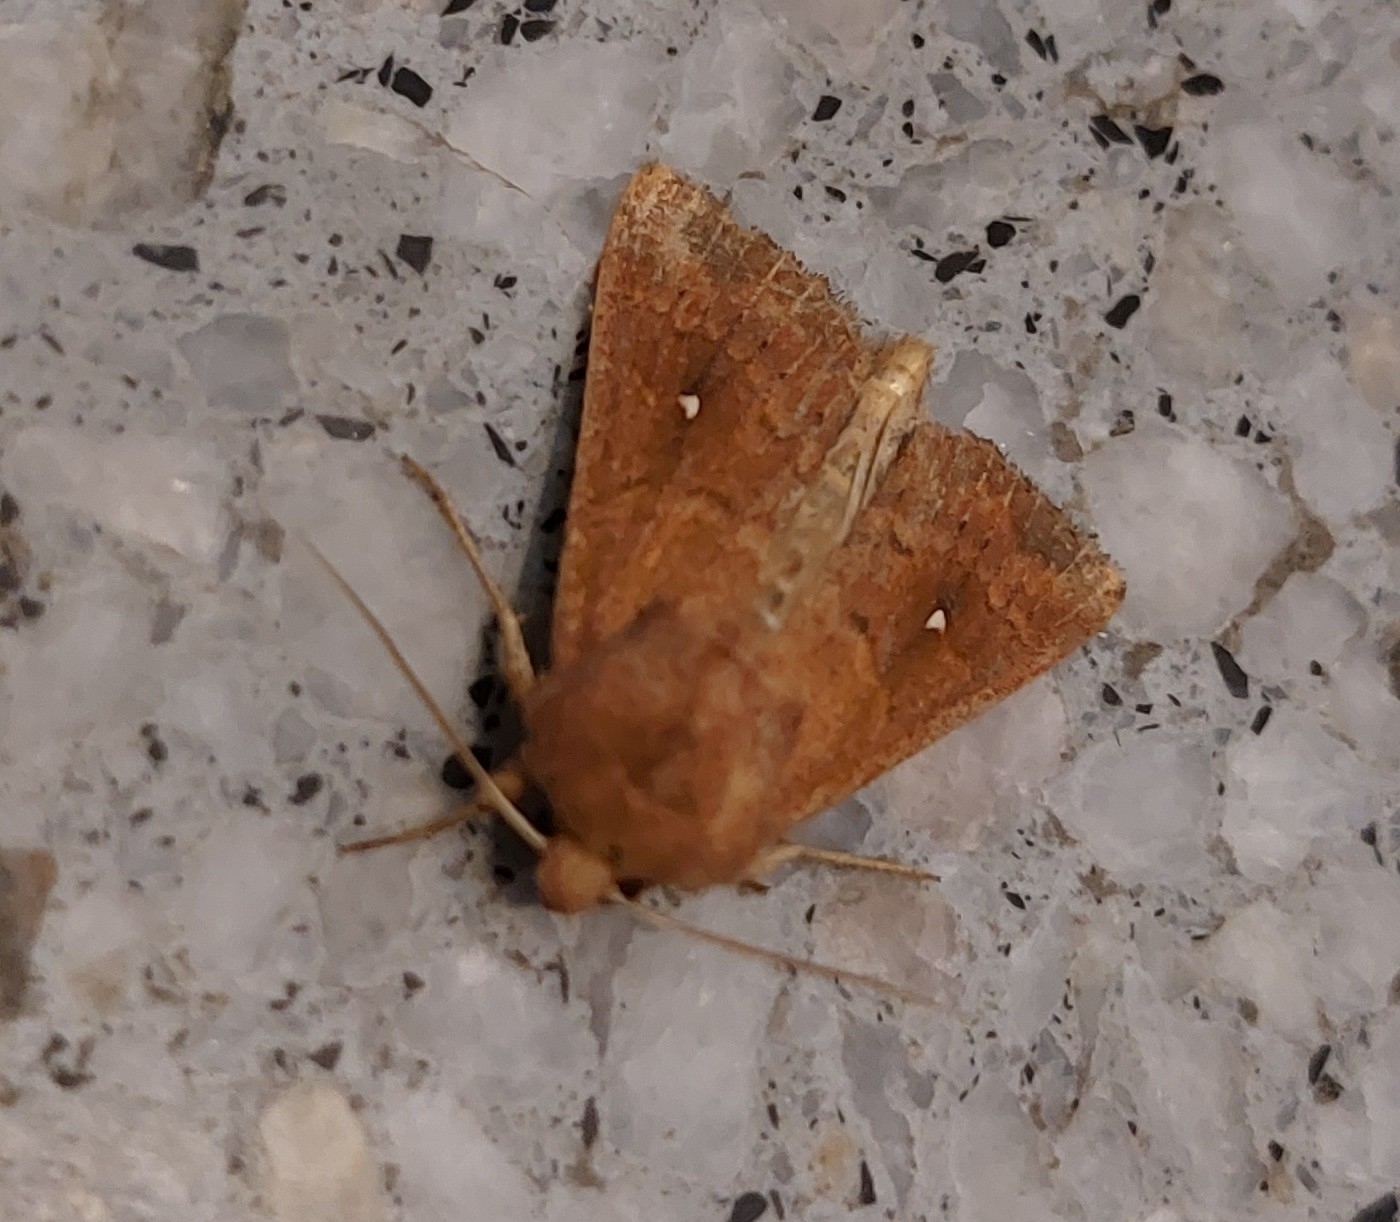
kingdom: Animalia
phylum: Arthropoda
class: Insecta
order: Lepidoptera
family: Noctuidae
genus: Mythimna
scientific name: Mythimna albipuncta
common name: White-point
